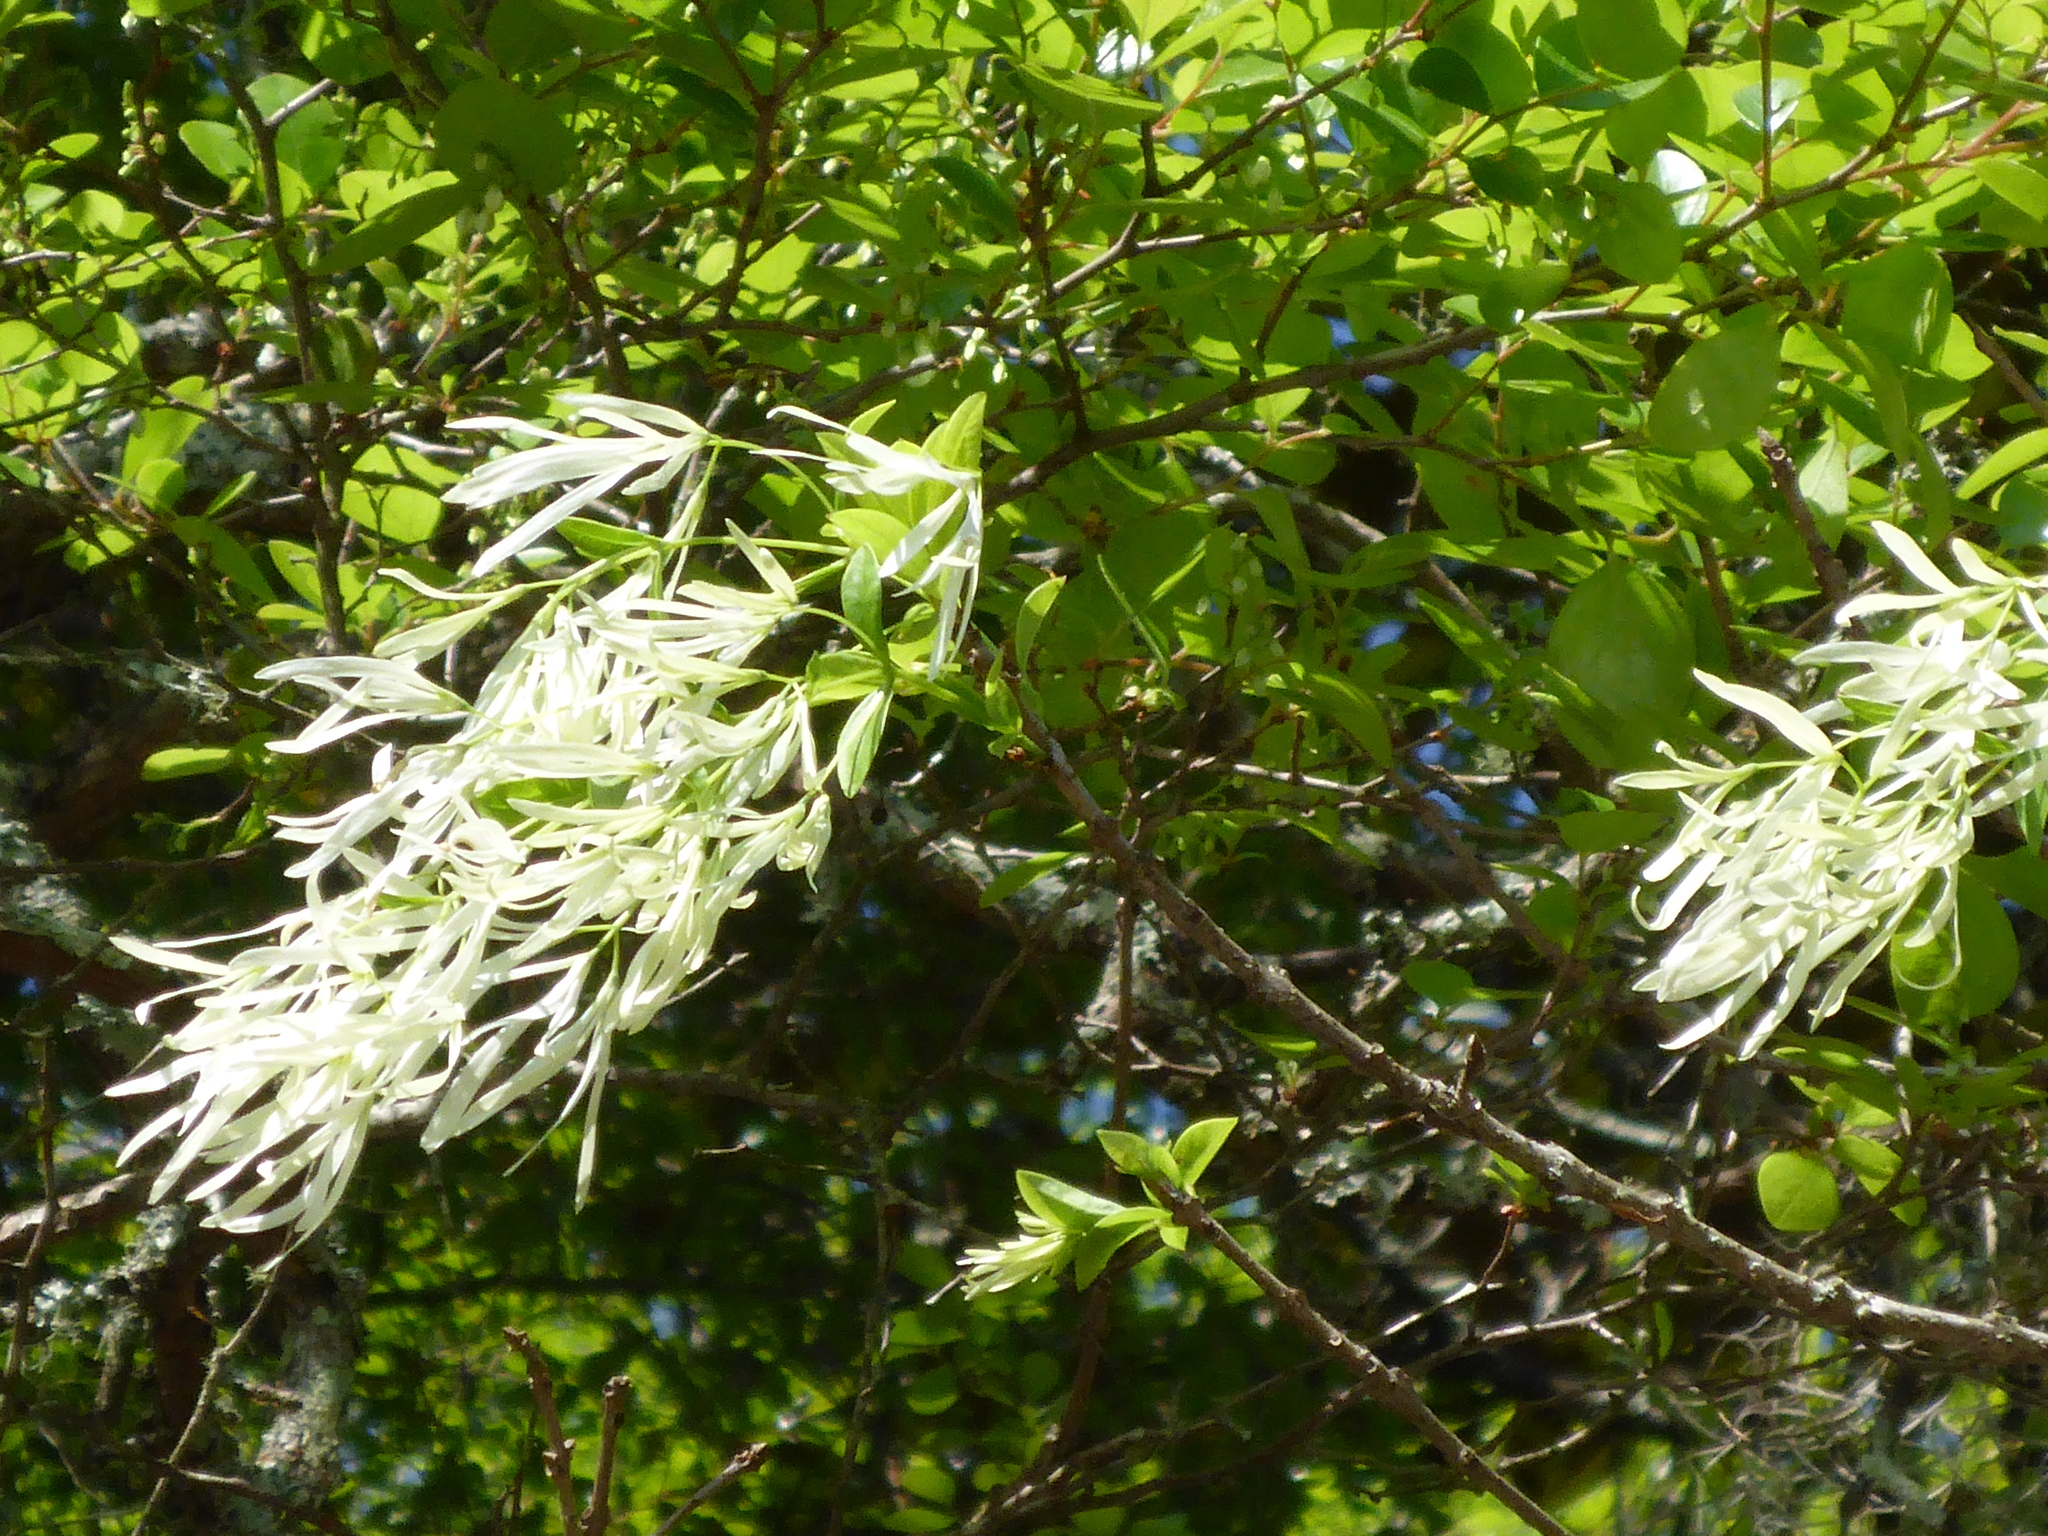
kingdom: Plantae
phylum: Tracheophyta
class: Magnoliopsida
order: Lamiales
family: Oleaceae
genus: Chionanthus
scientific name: Chionanthus virginicus
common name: American fringetree
